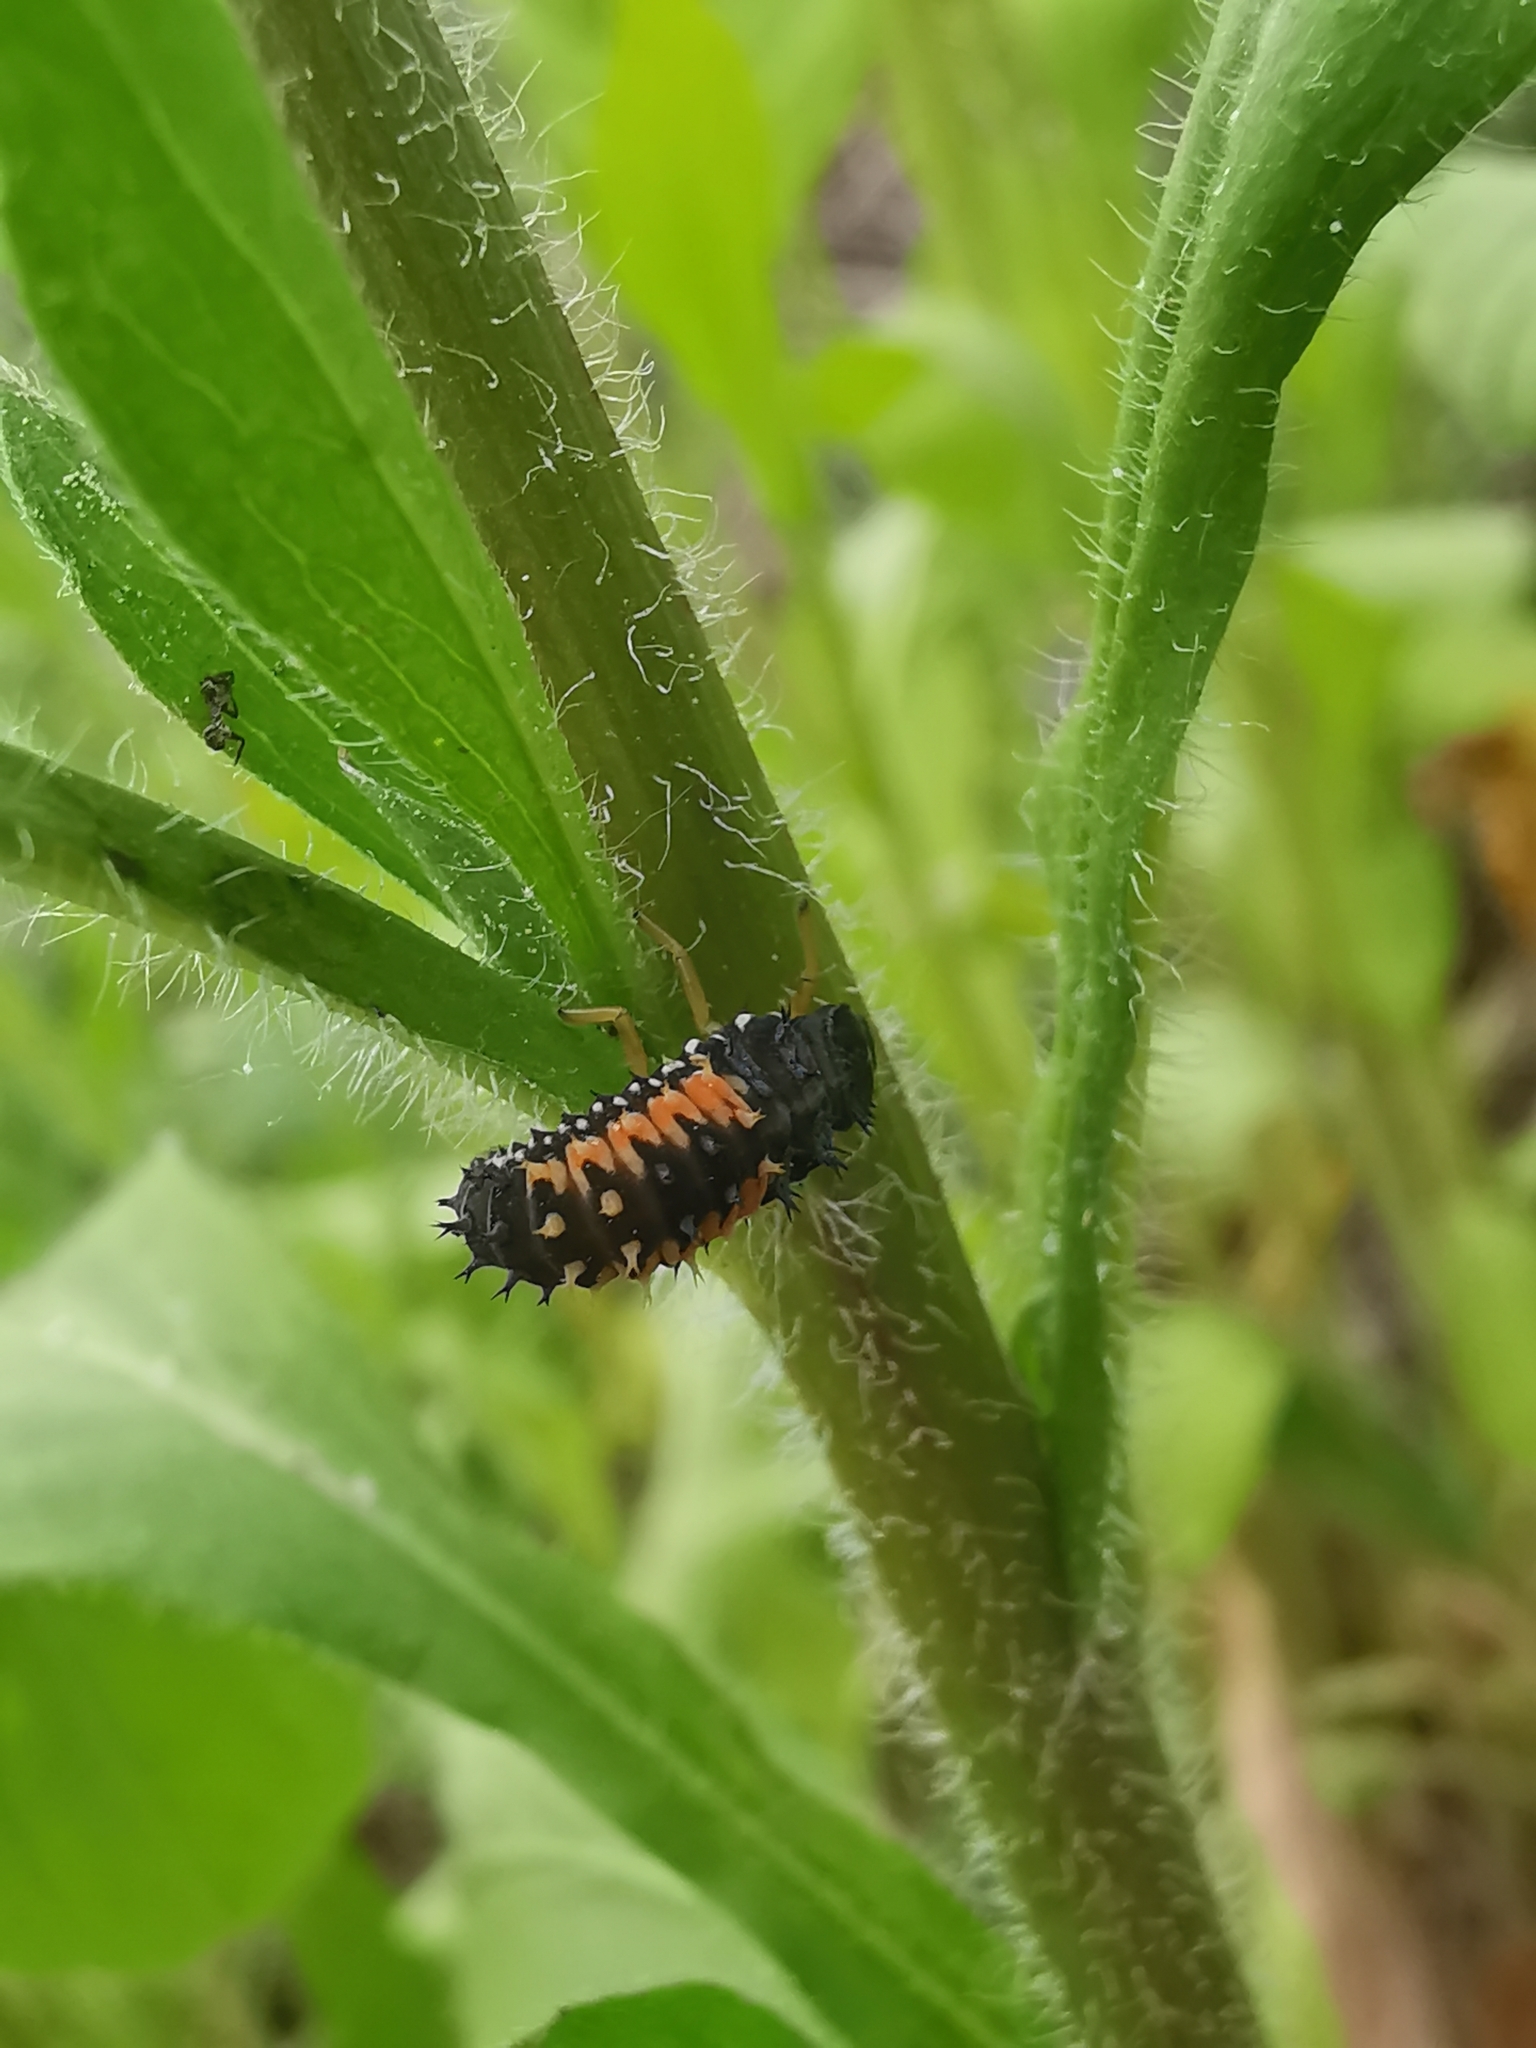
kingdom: Animalia
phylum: Arthropoda
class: Insecta
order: Coleoptera
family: Coccinellidae
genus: Harmonia
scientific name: Harmonia axyridis
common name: Harlequin ladybird
